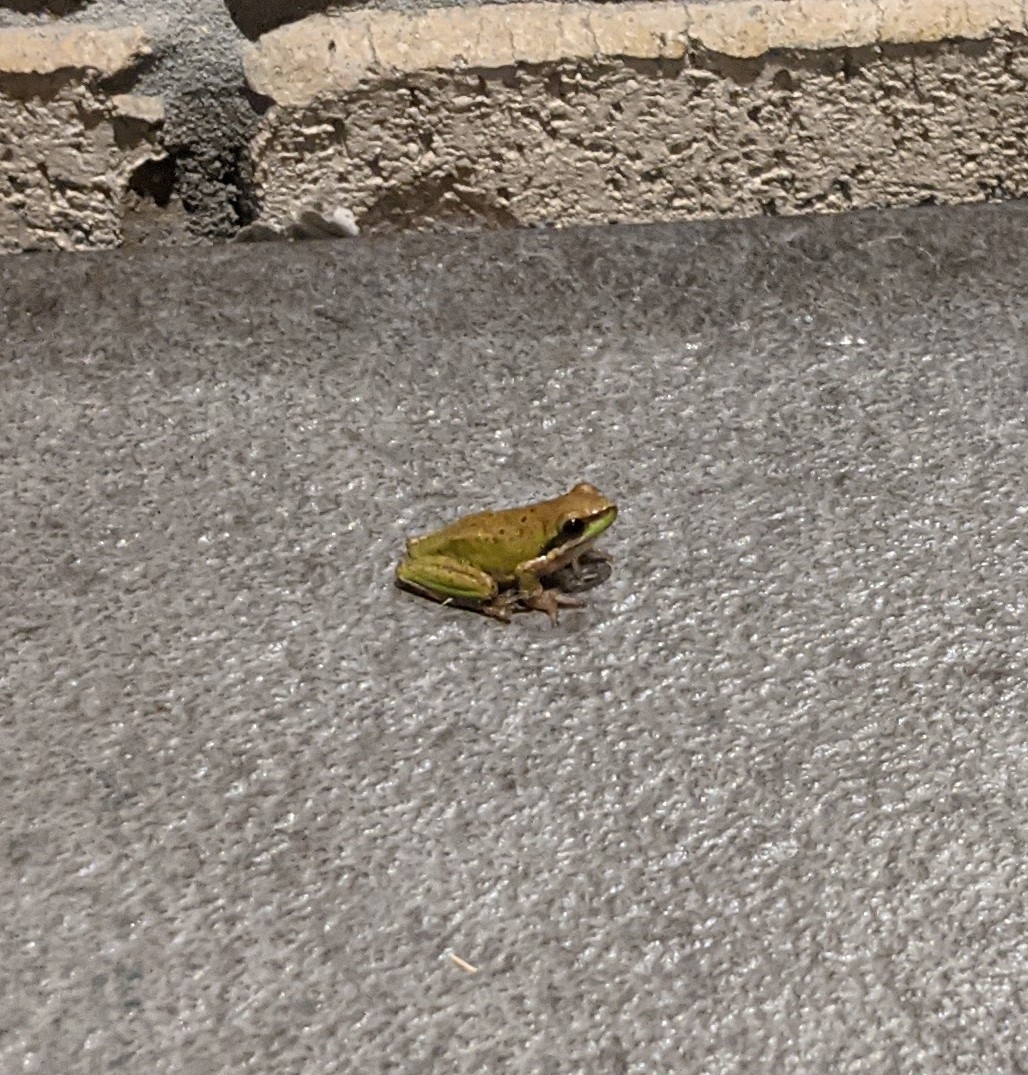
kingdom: Animalia
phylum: Chordata
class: Amphibia
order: Anura
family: Pelodryadidae
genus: Litoria
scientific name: Litoria fallax
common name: Eastern dwarf treefrog
